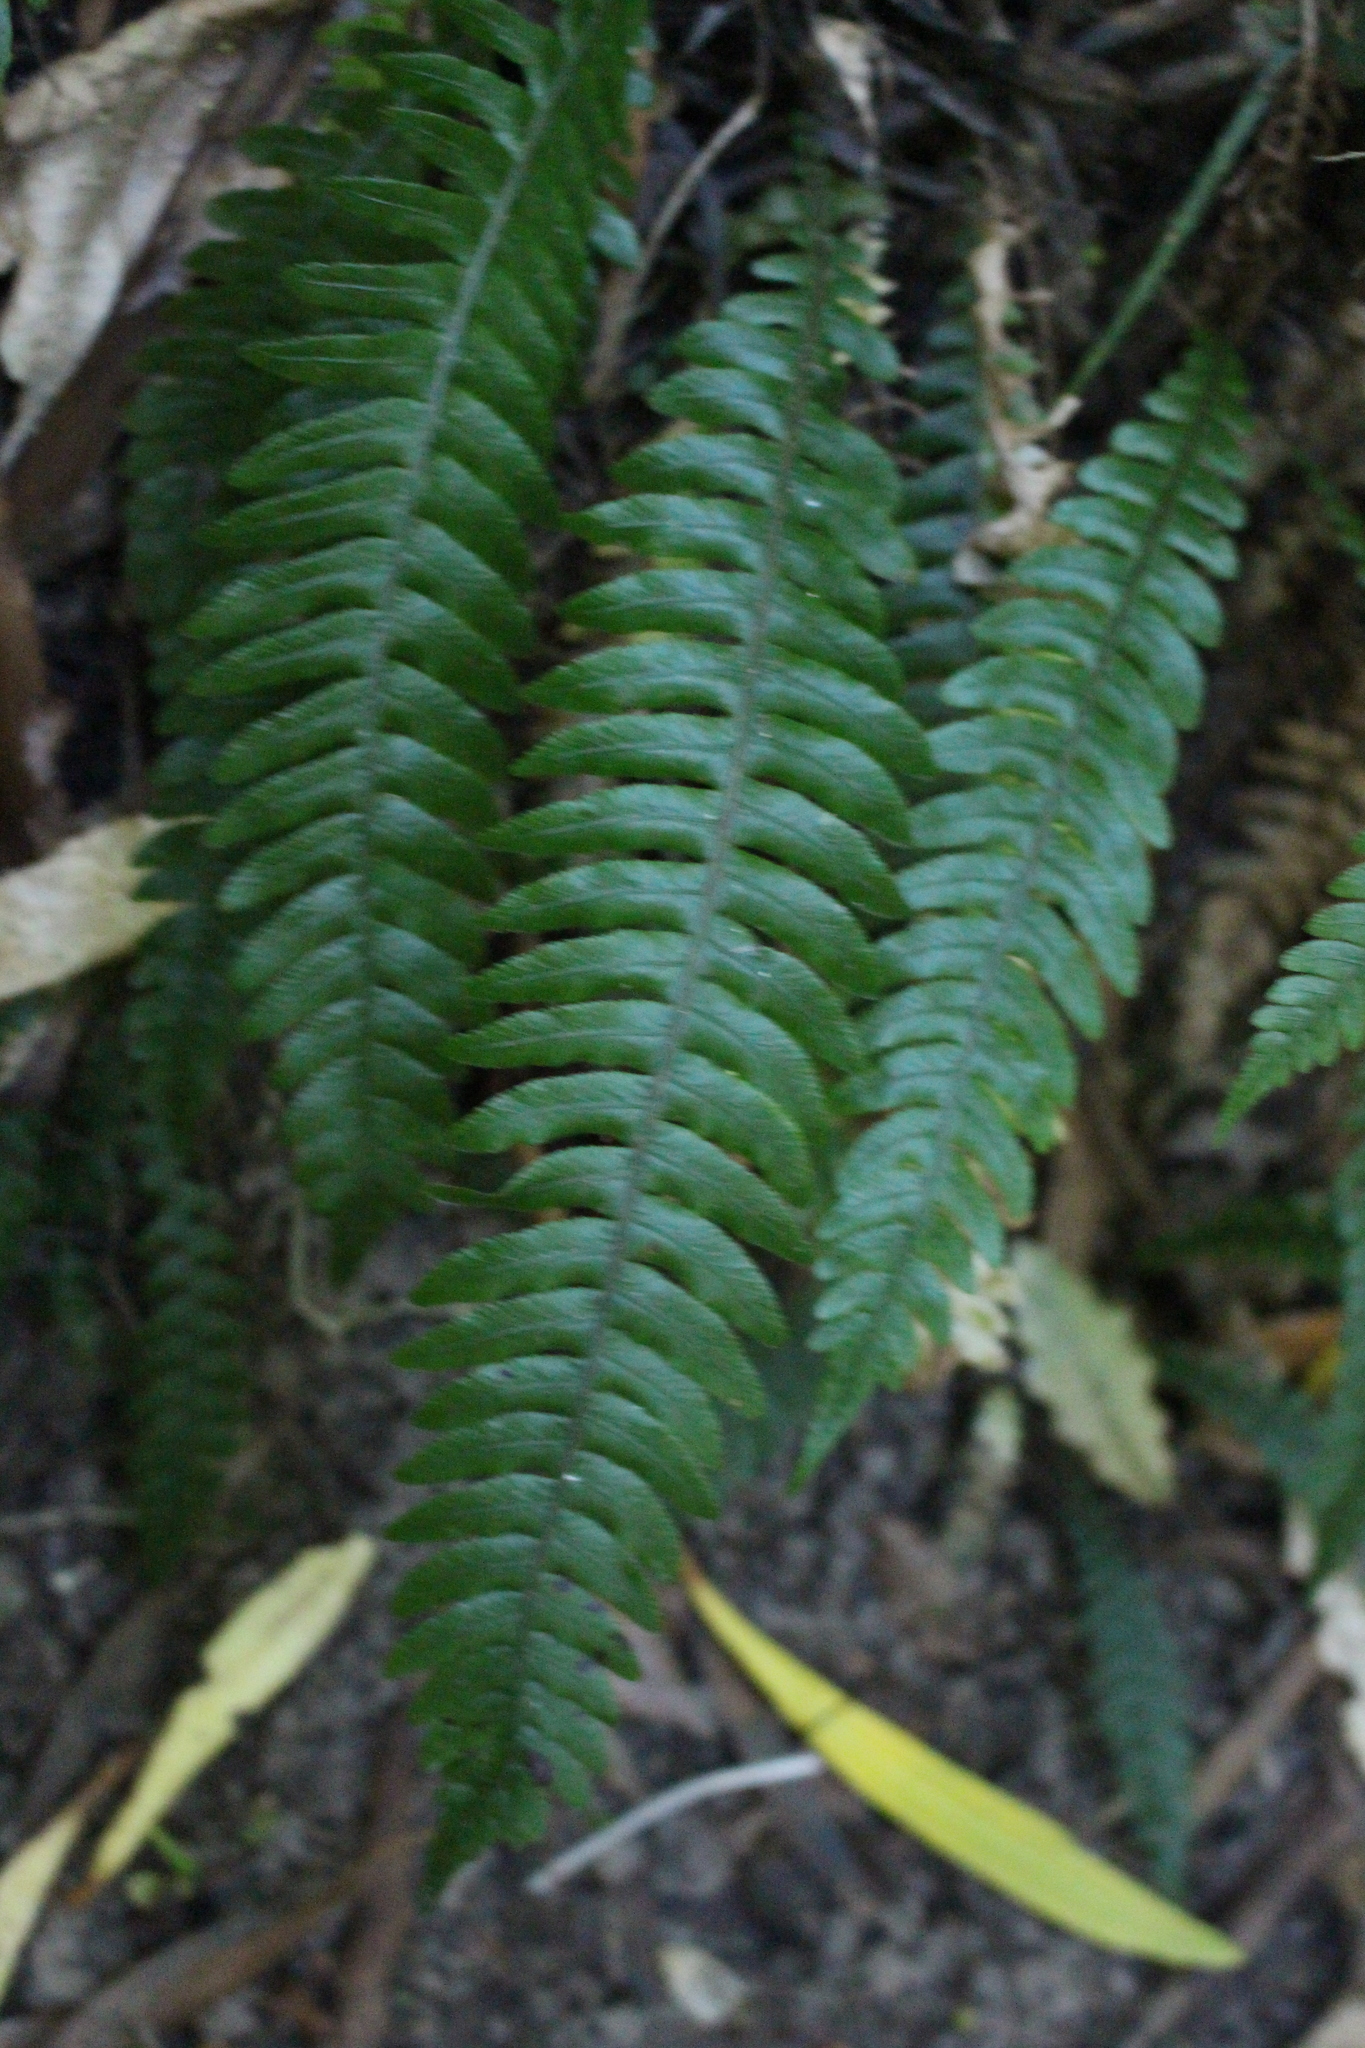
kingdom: Plantae
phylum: Tracheophyta
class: Polypodiopsida
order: Polypodiales
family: Blechnaceae
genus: Austroblechnum
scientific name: Austroblechnum lanceolatum
